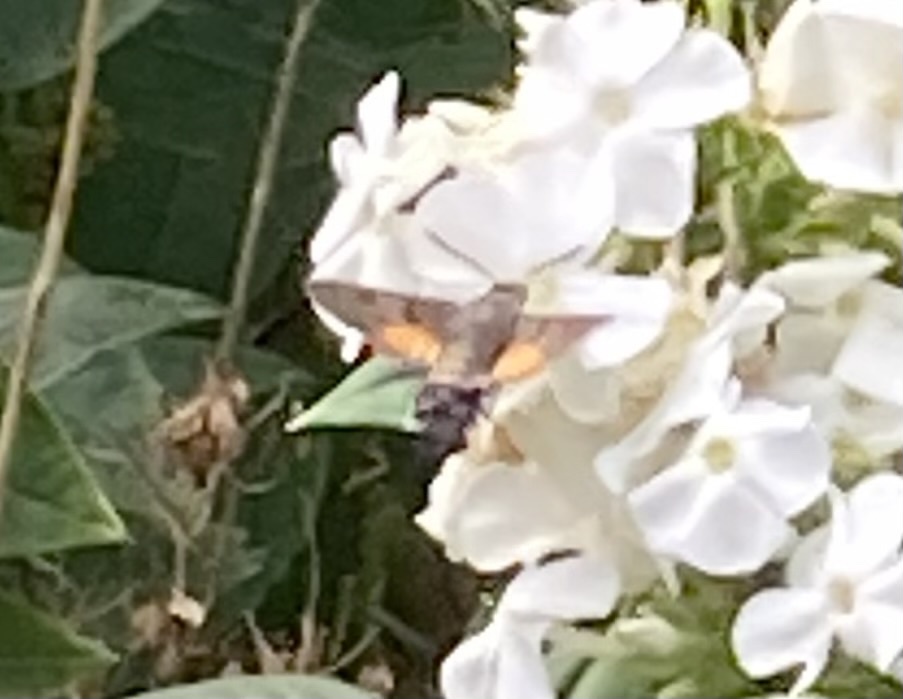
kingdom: Animalia
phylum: Arthropoda
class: Insecta
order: Lepidoptera
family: Sphingidae
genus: Macroglossum
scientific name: Macroglossum stellatarum
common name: Humming-bird hawk-moth
